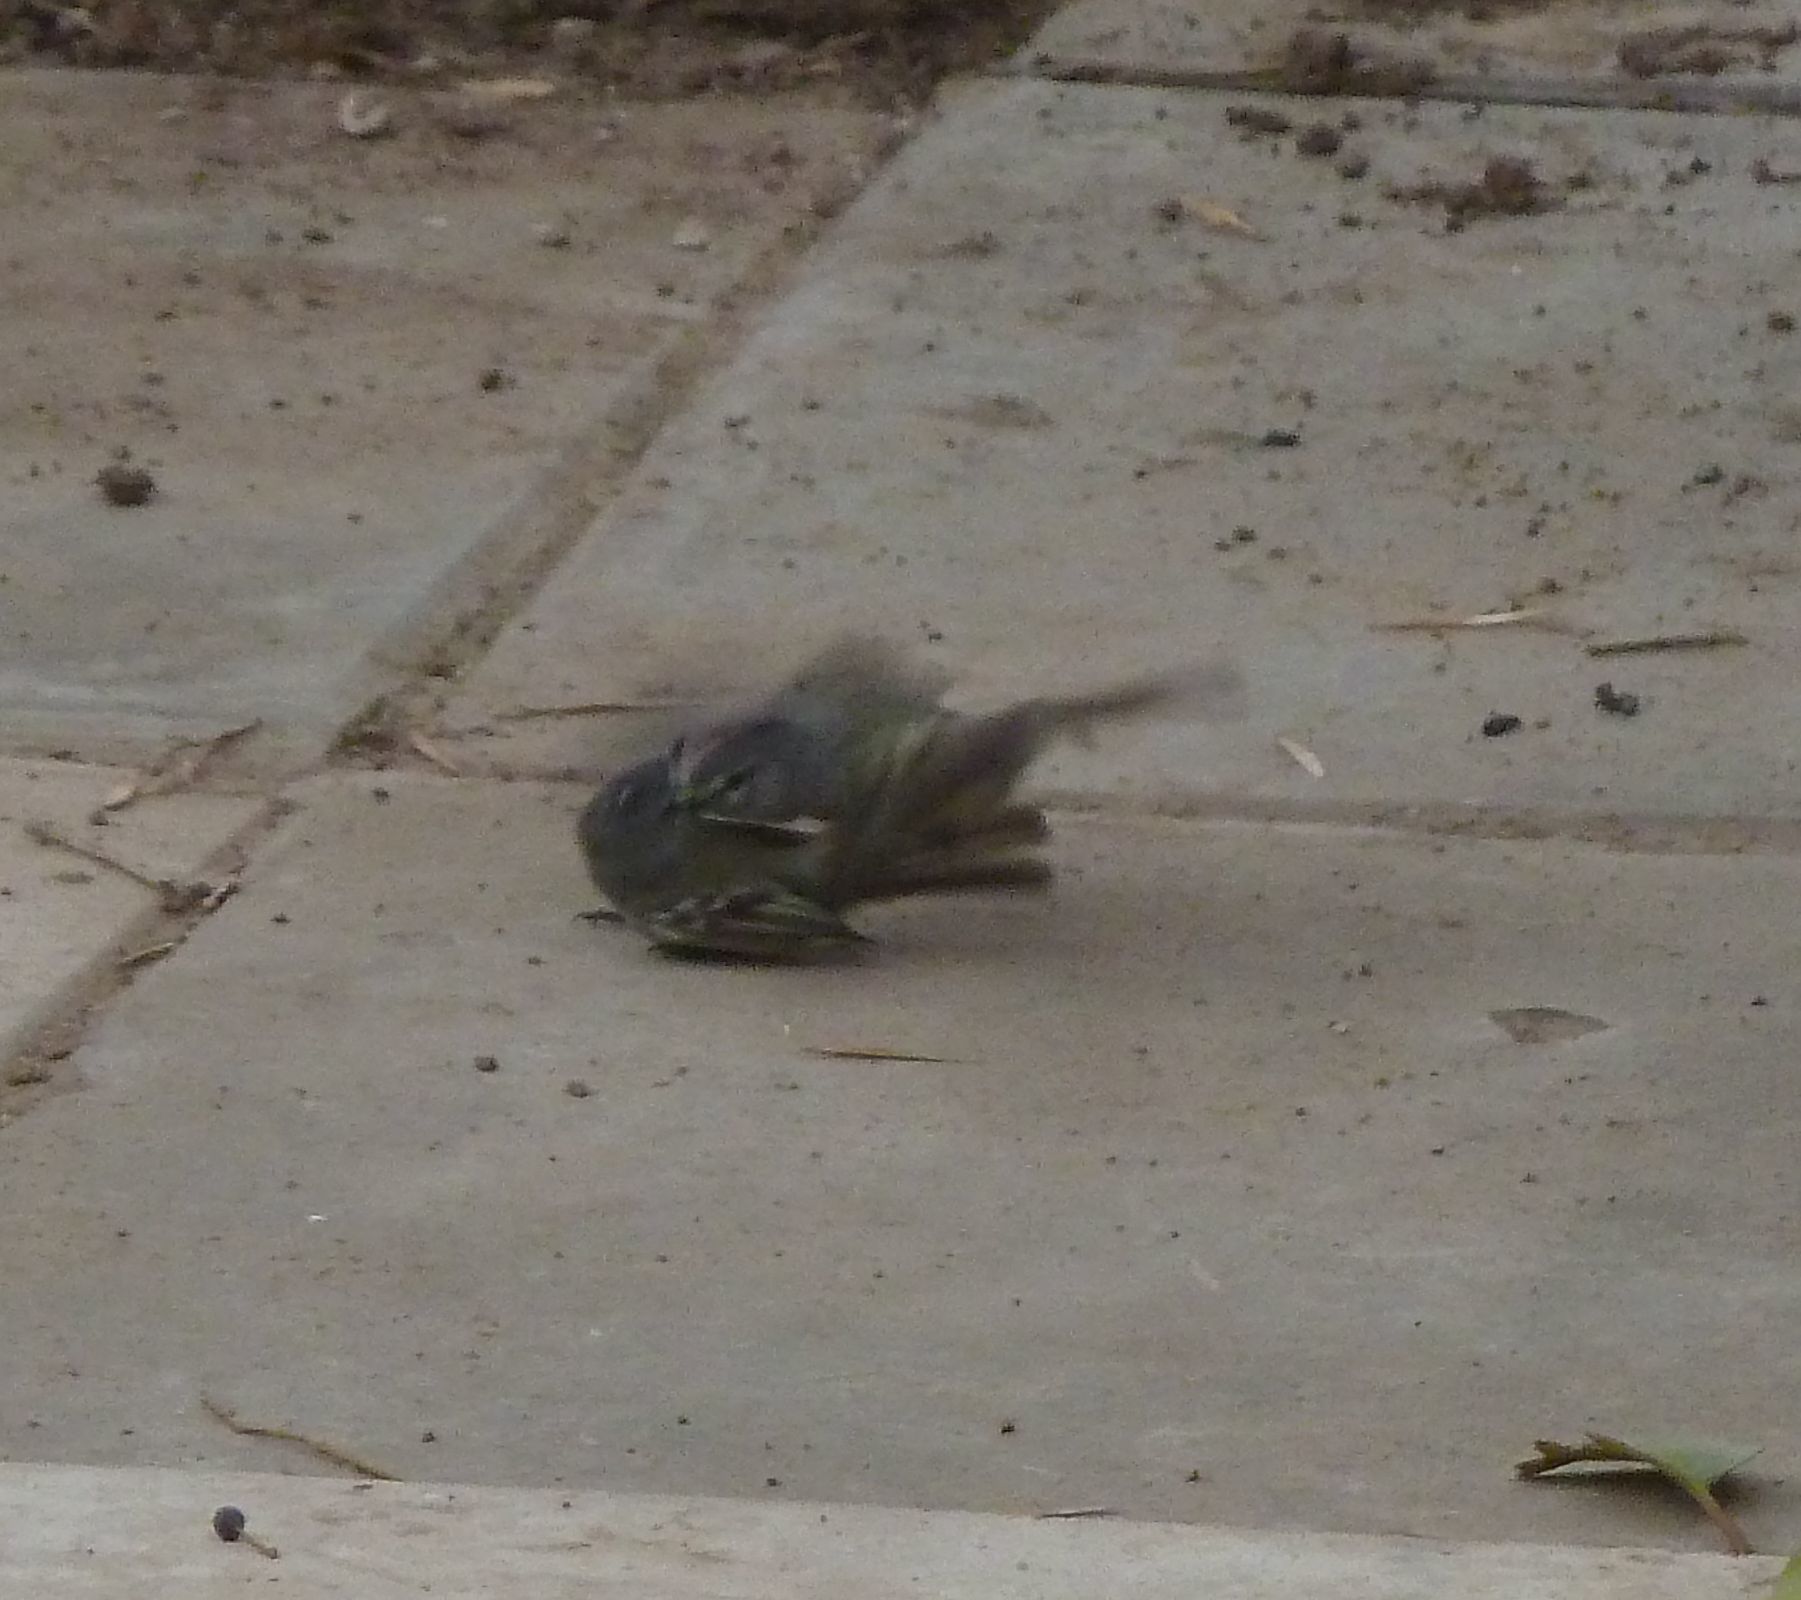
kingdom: Animalia
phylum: Chordata
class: Aves
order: Passeriformes
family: Tyrannidae
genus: Serpophaga
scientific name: Serpophaga subcristata
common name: White-crested tyrannulet
